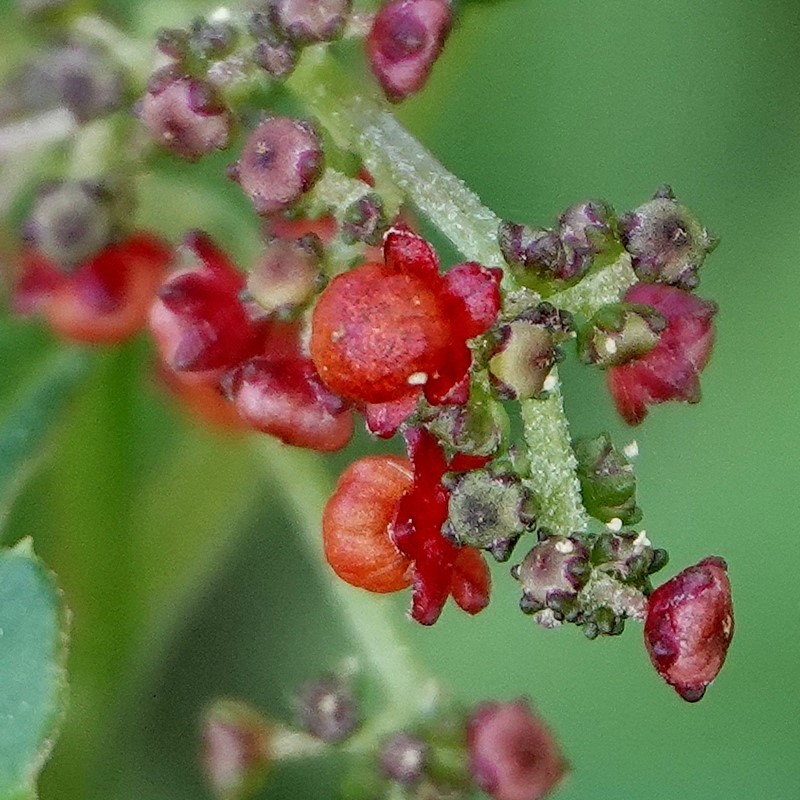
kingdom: Plantae
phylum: Tracheophyta
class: Magnoliopsida
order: Caryophyllales
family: Amaranthaceae
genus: Chenopodium
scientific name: Chenopodium robertianum
